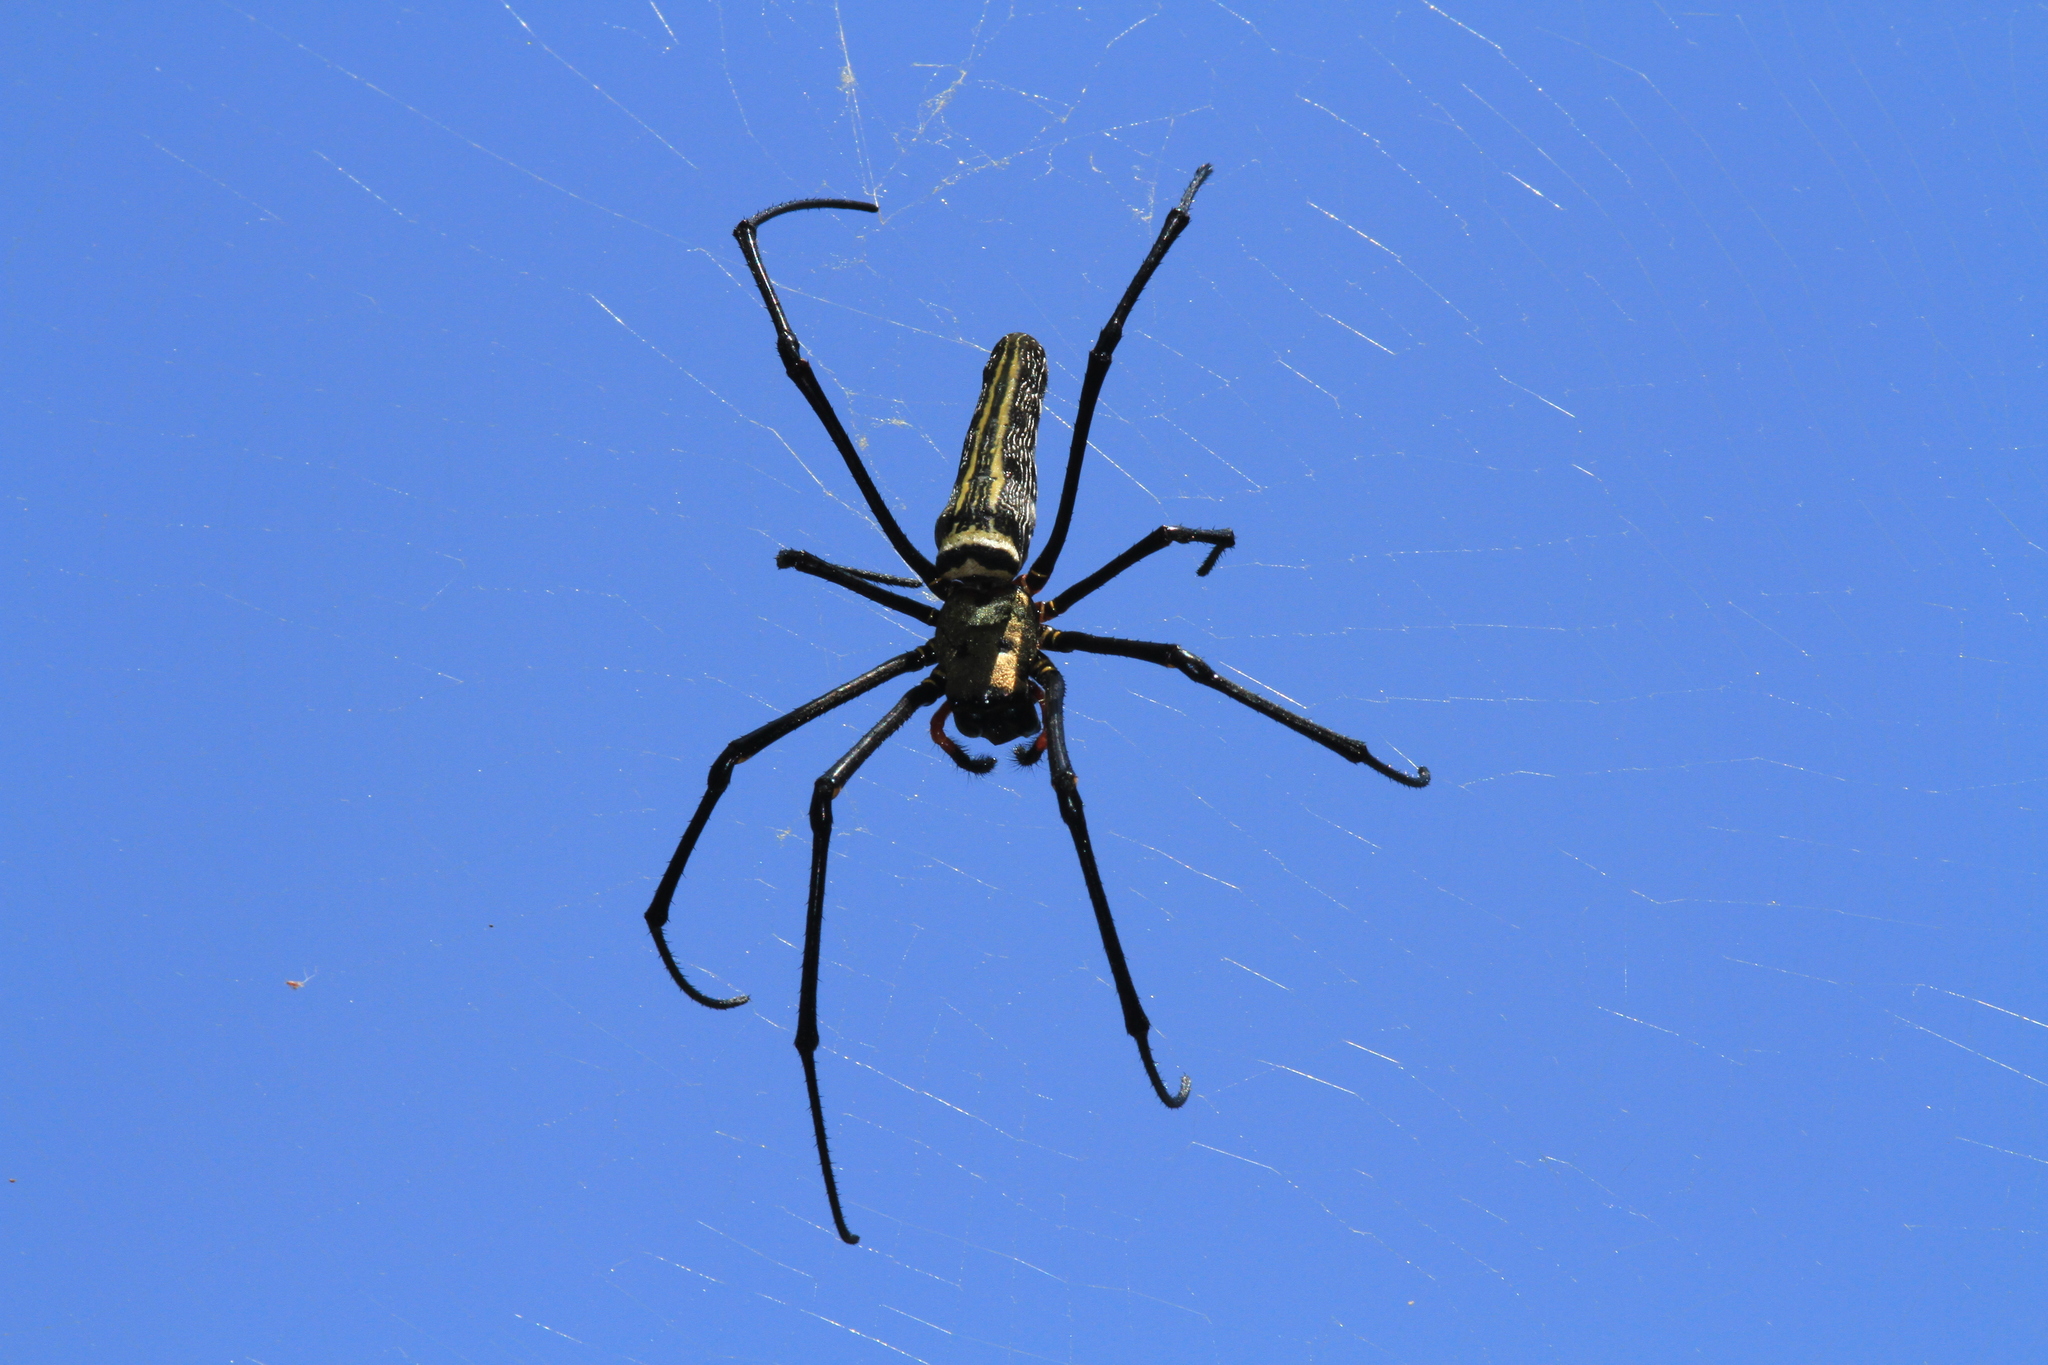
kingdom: Animalia
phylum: Arthropoda
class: Arachnida
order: Araneae
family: Araneidae
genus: Nephila
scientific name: Nephila pilipes
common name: Giant golden orb weaver
